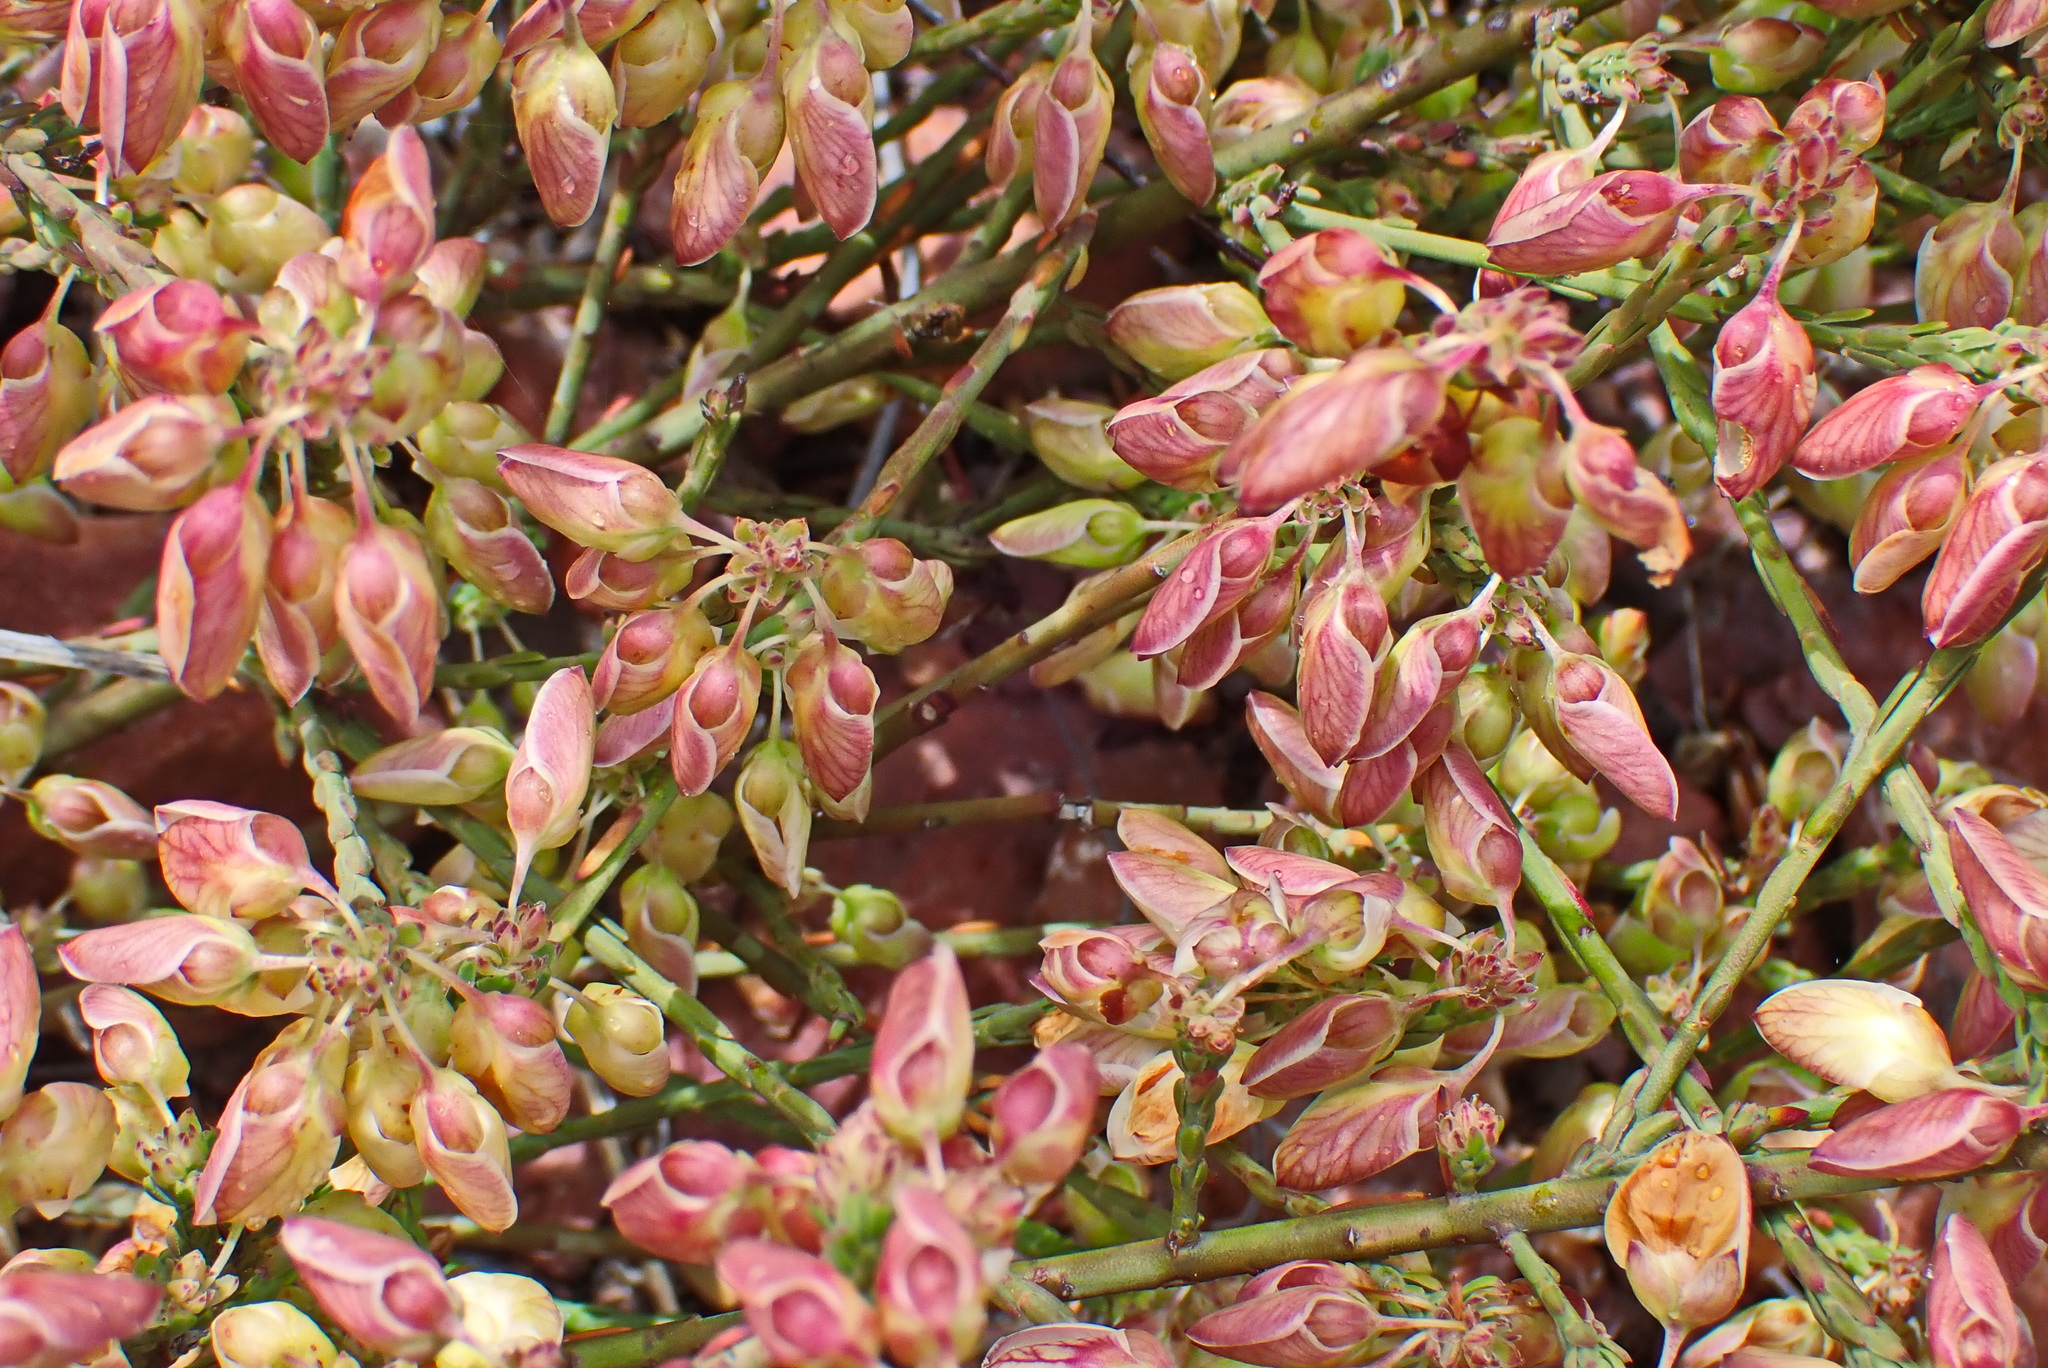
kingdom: Plantae
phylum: Tracheophyta
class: Magnoliopsida
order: Fabales
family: Polygalaceae
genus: Polygala
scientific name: Polygala wittebergensis
